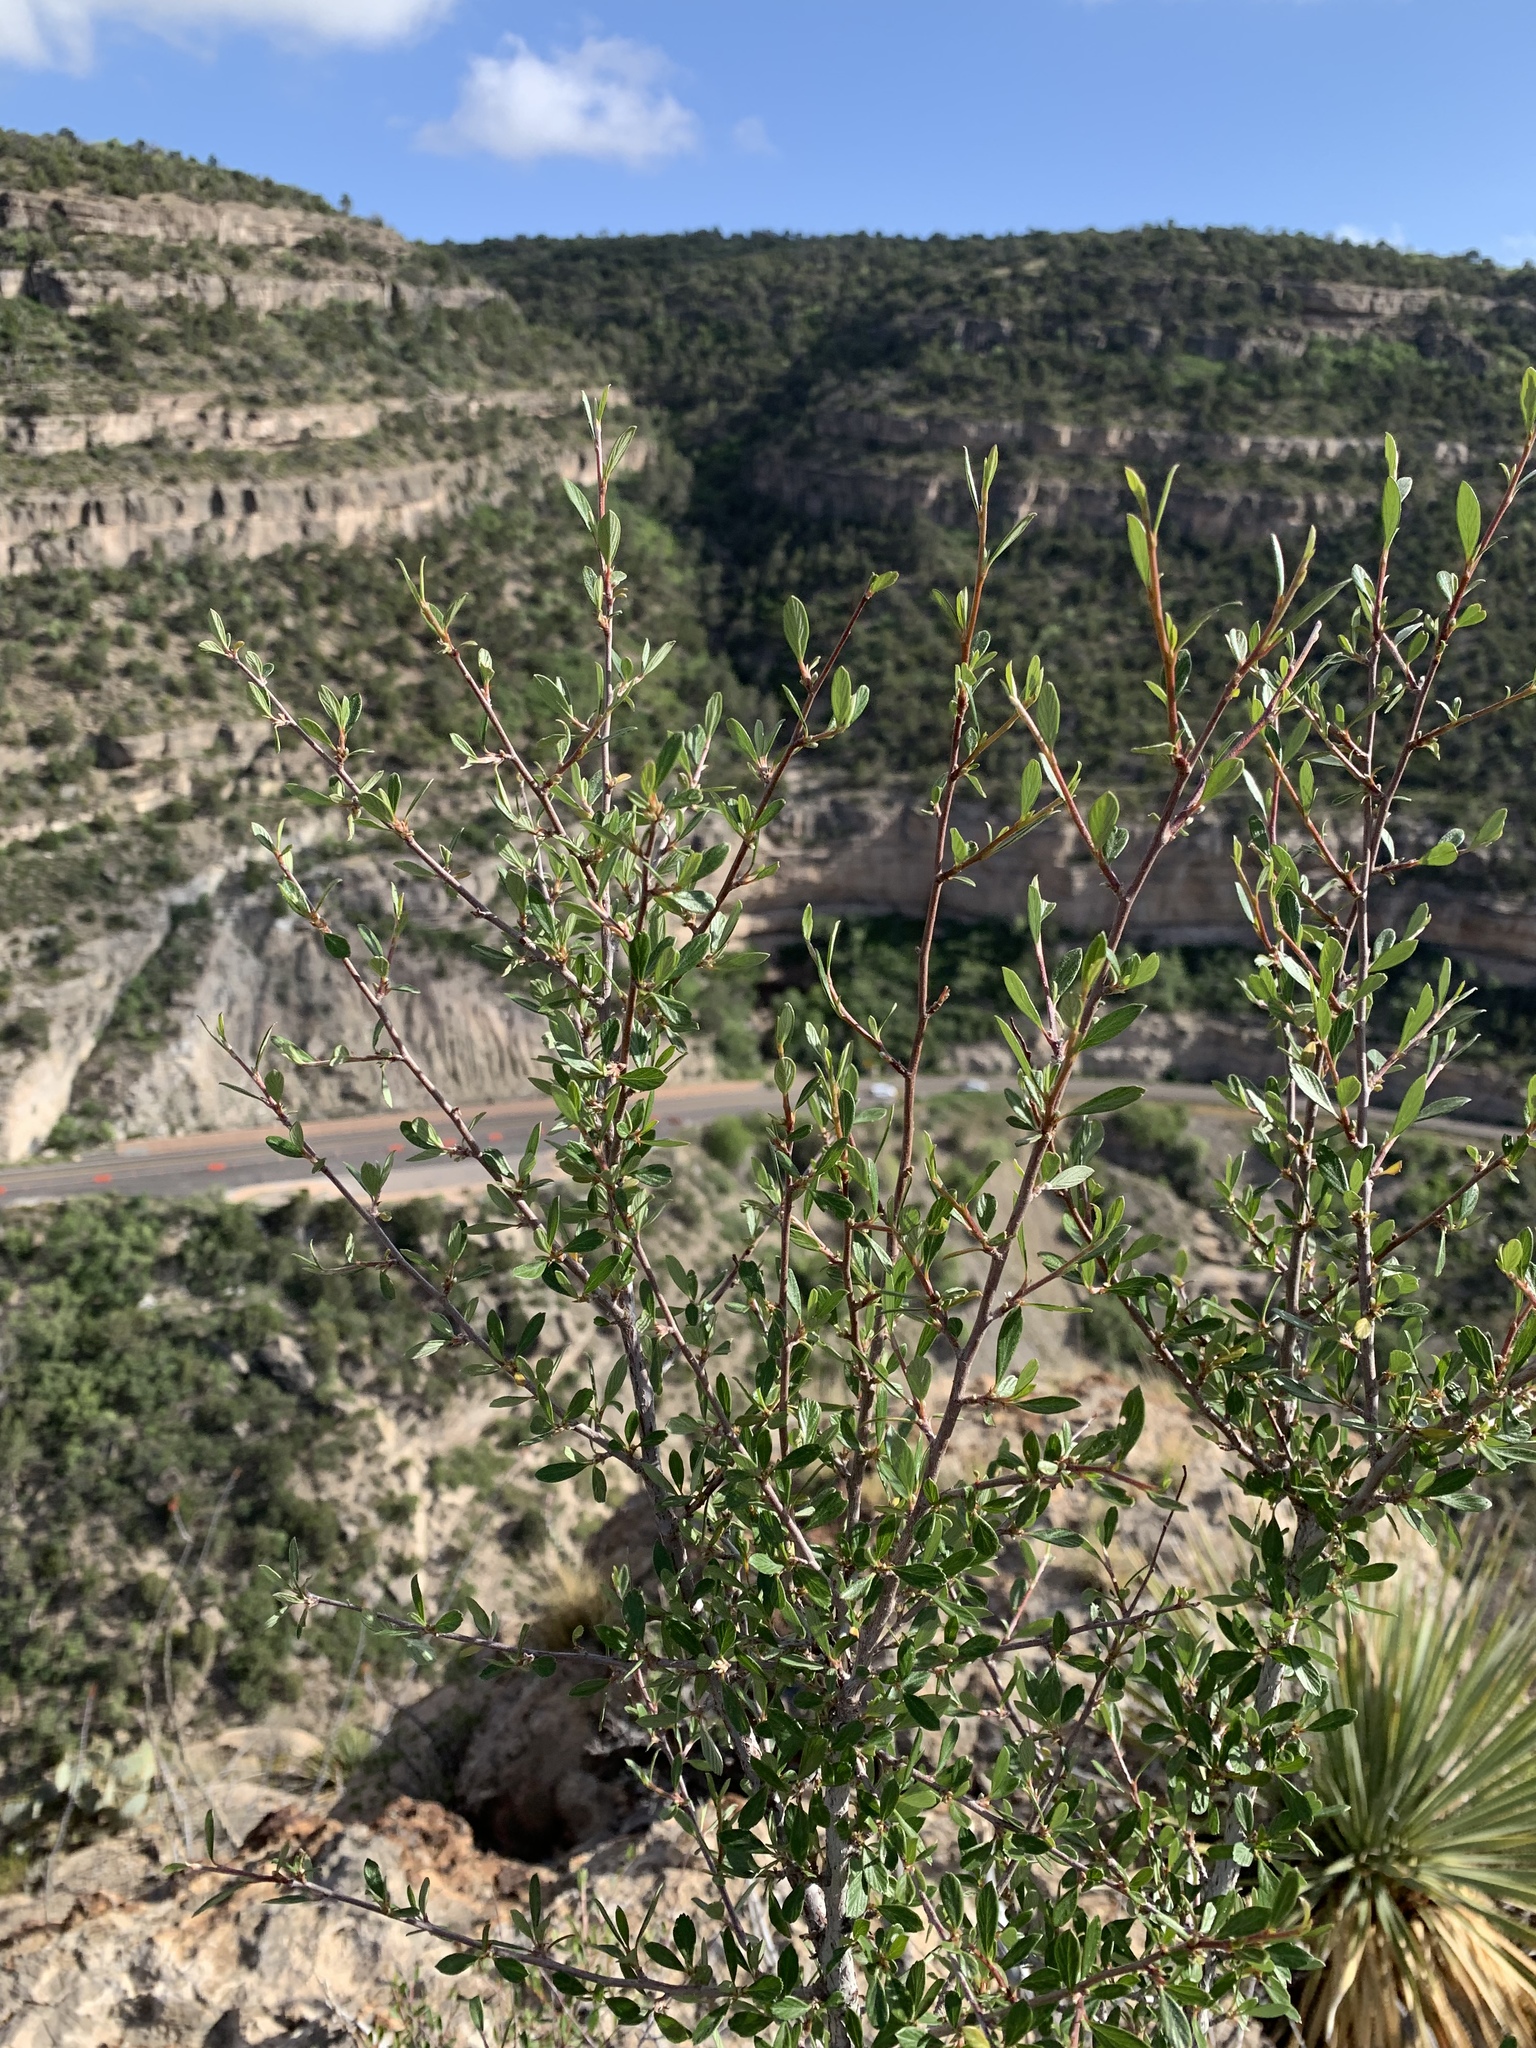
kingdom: Plantae
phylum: Tracheophyta
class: Magnoliopsida
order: Rosales
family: Rosaceae
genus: Cercocarpus
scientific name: Cercocarpus breviflorus
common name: Wright's mountain-mahogany
